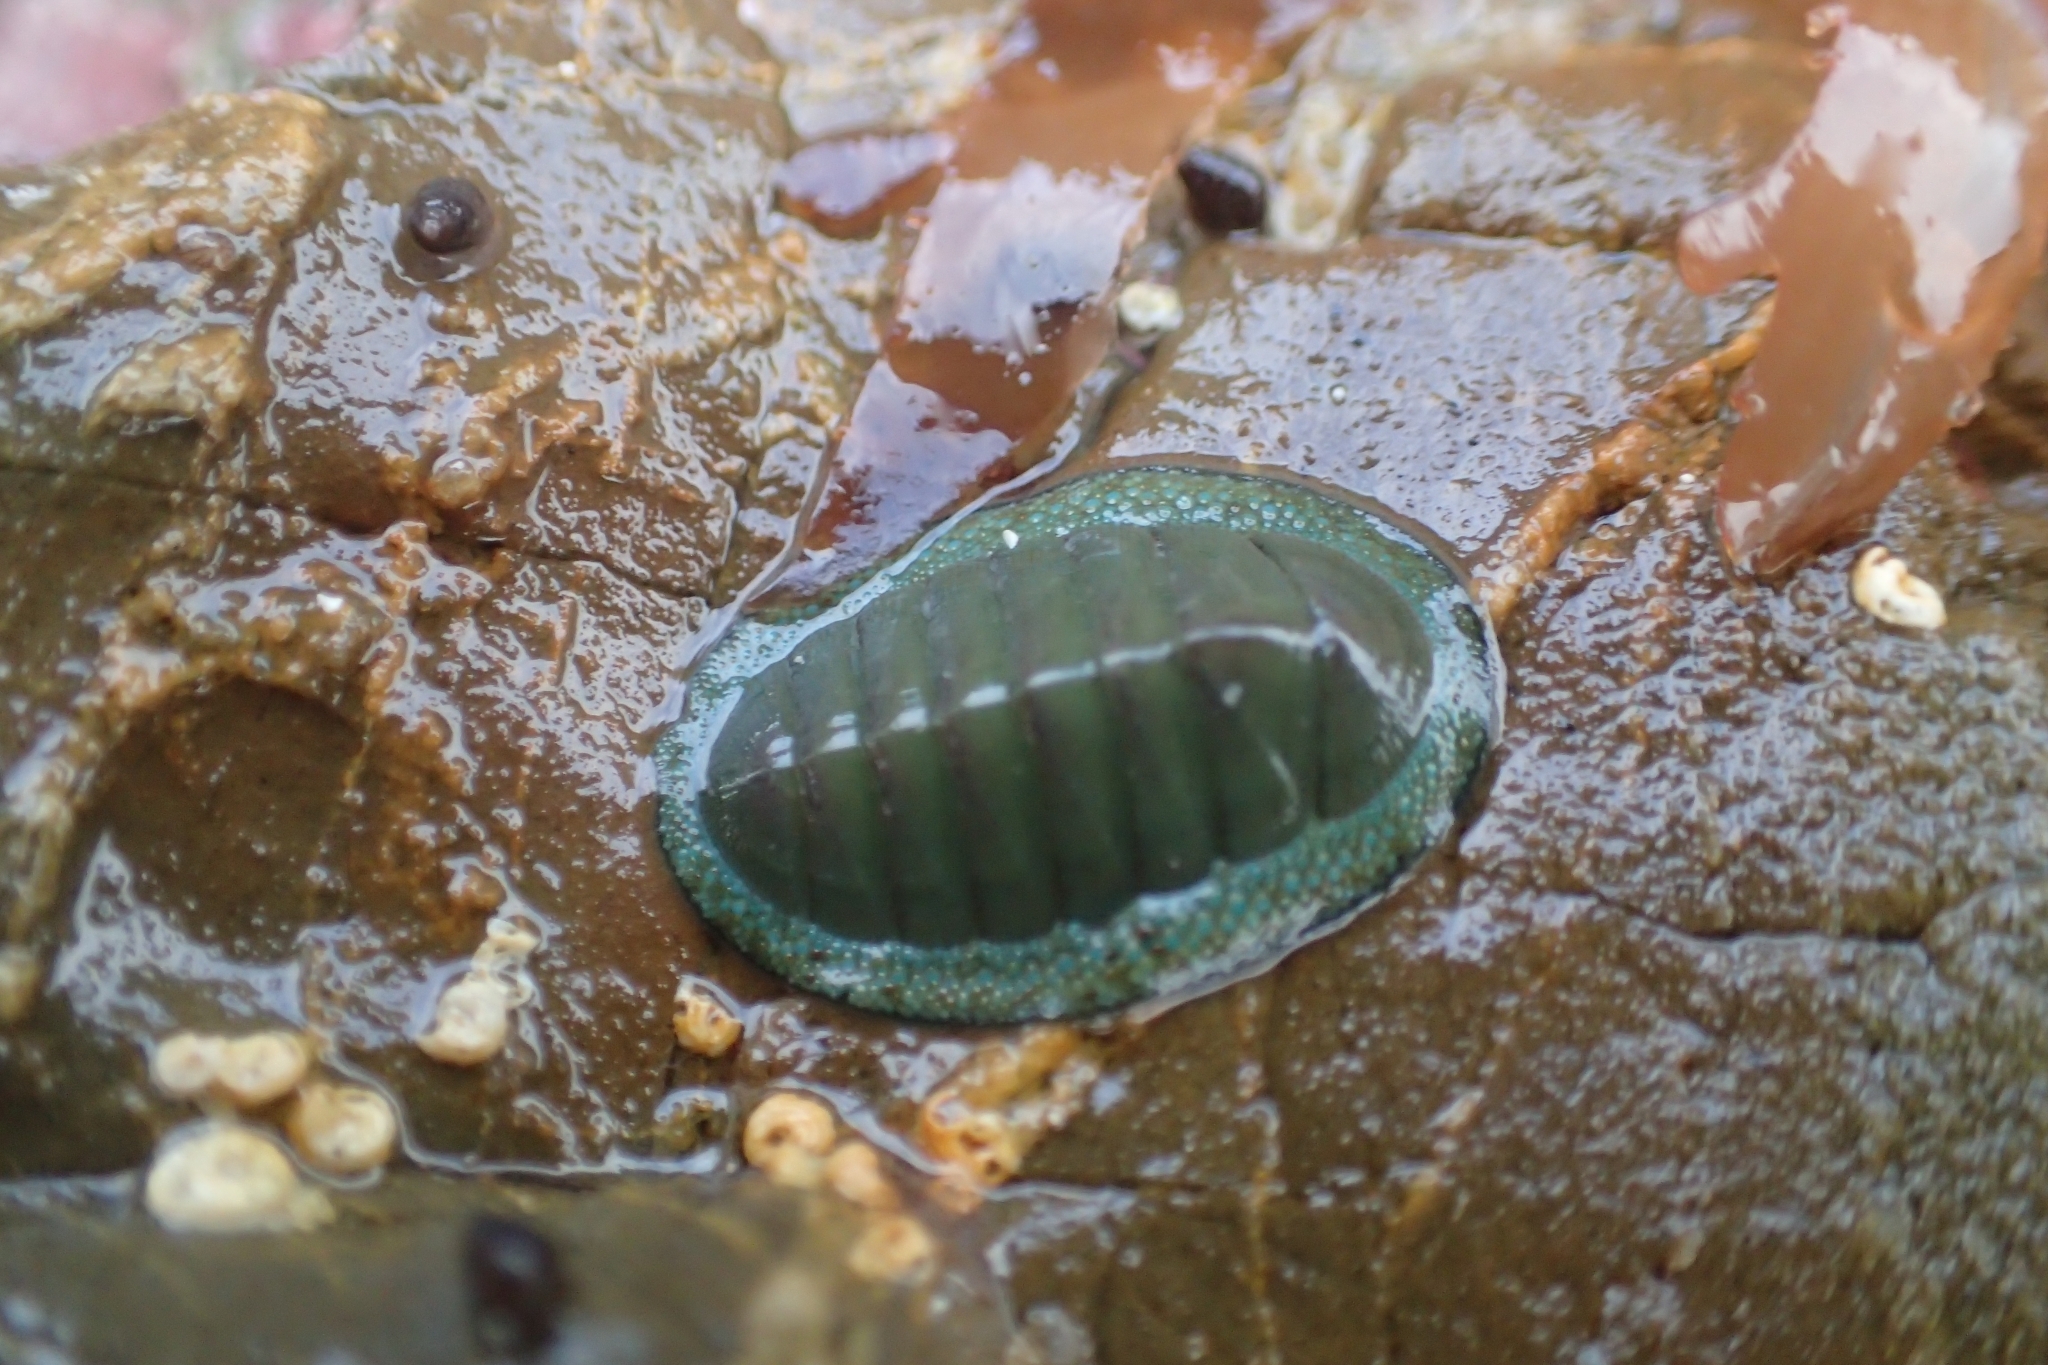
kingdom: Animalia
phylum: Mollusca
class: Polyplacophora
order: Chitonida
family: Chitonidae
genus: Chiton
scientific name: Chiton glaucus
